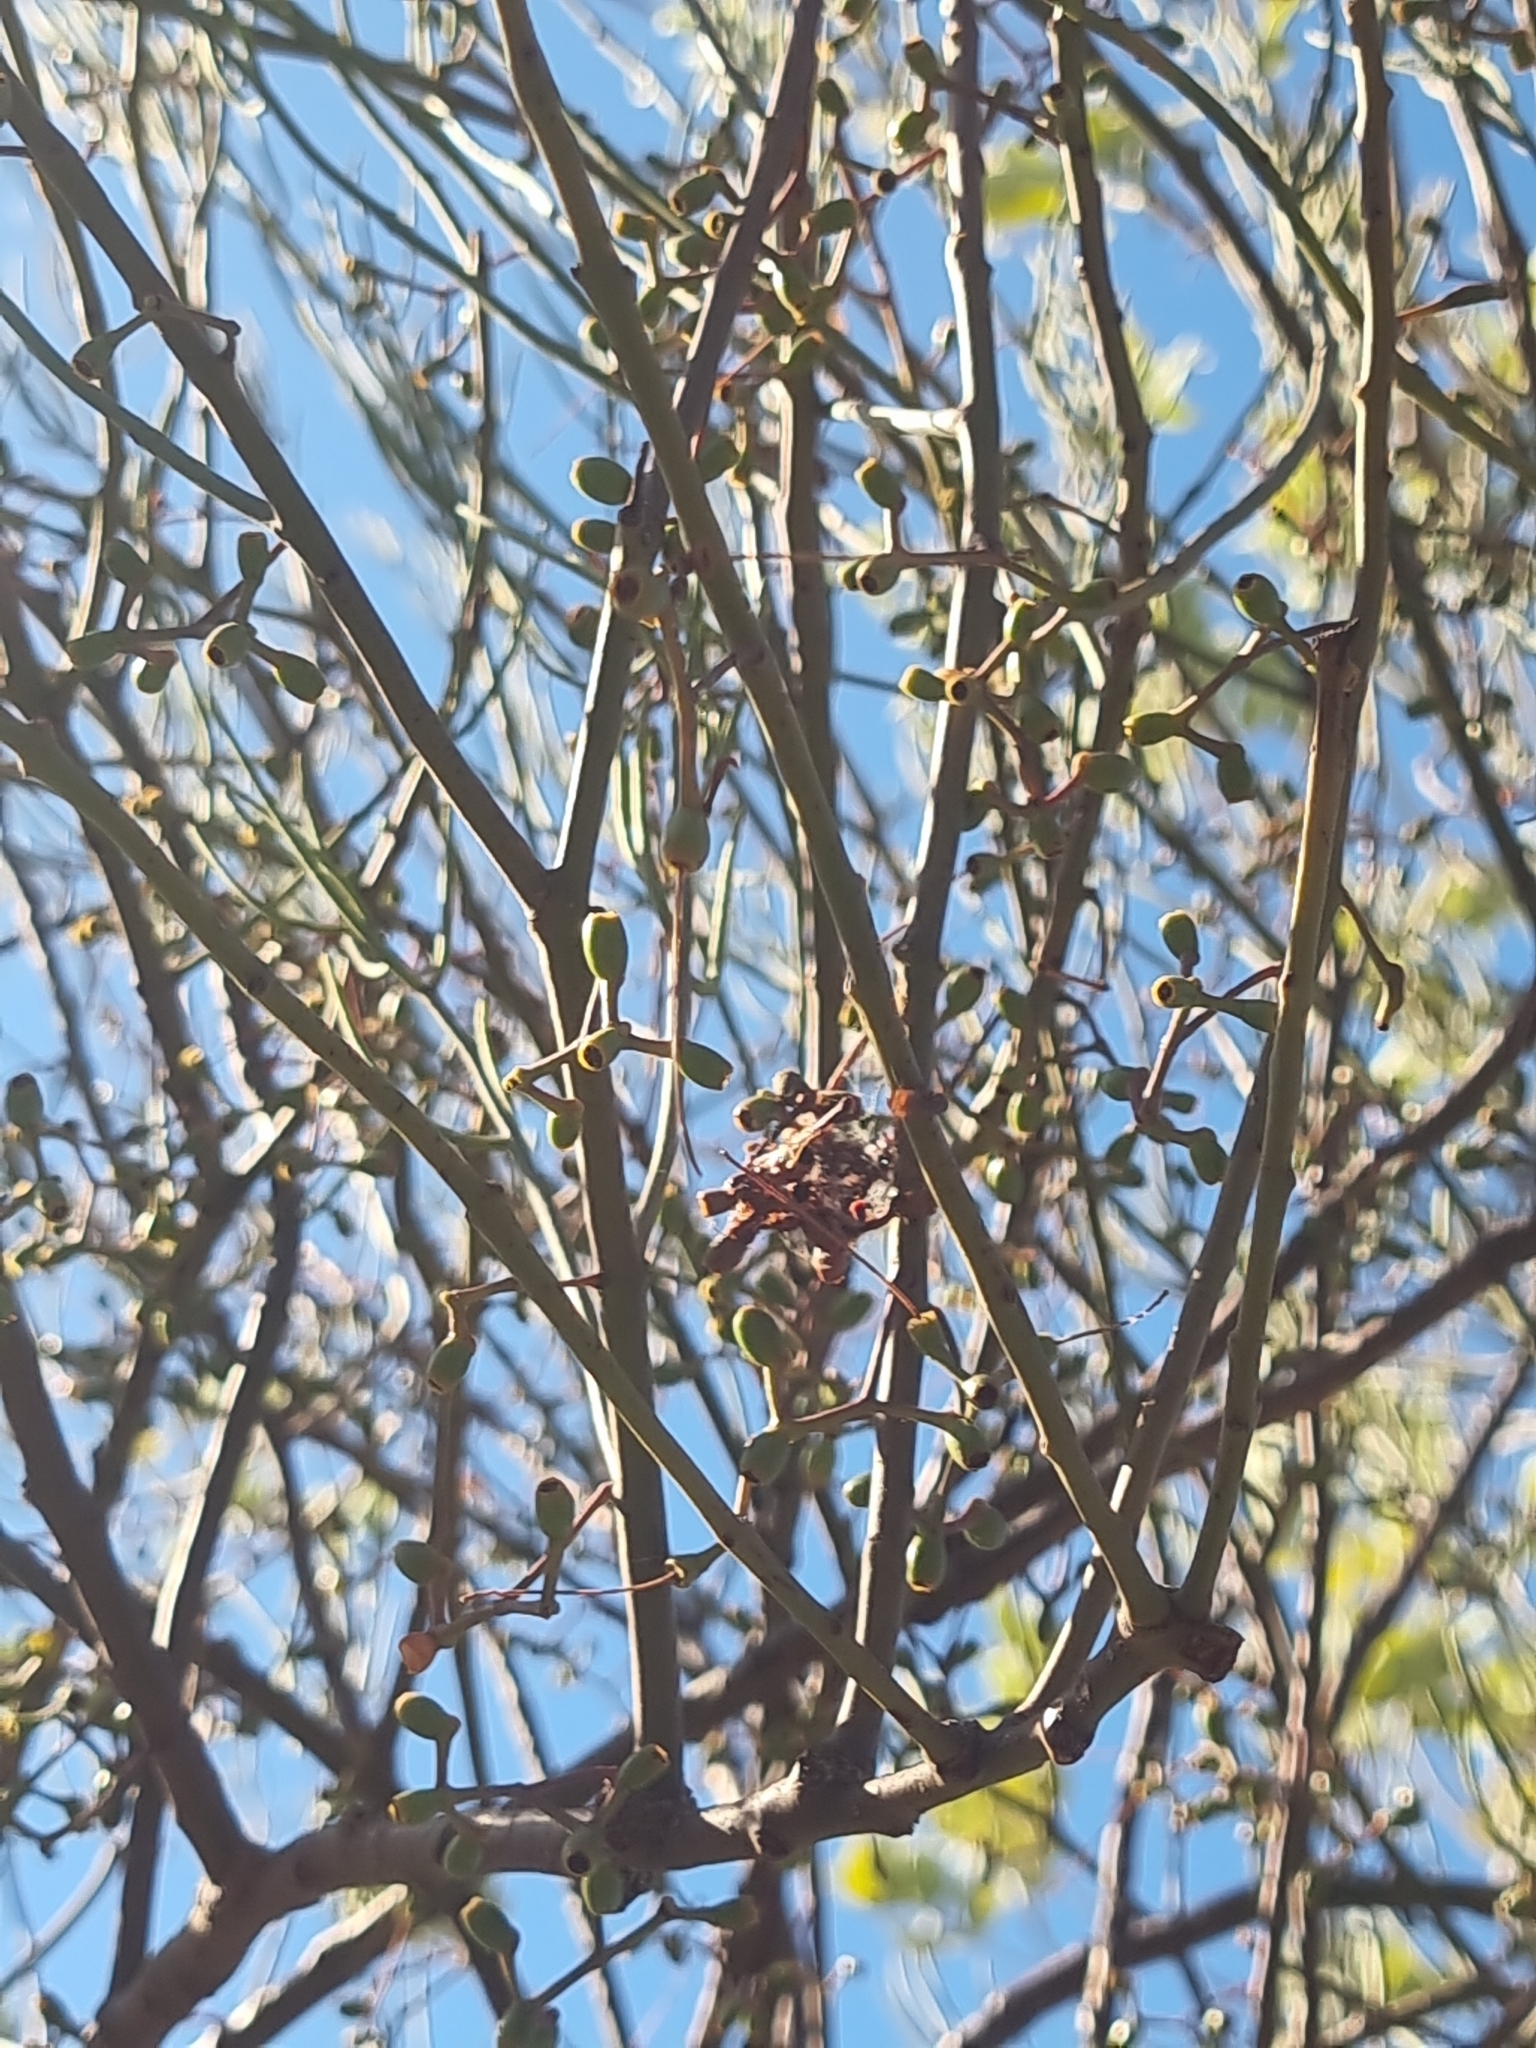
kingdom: Plantae
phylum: Tracheophyta
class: Magnoliopsida
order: Santalales
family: Loranthaceae
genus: Amyema
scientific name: Amyema preissii
